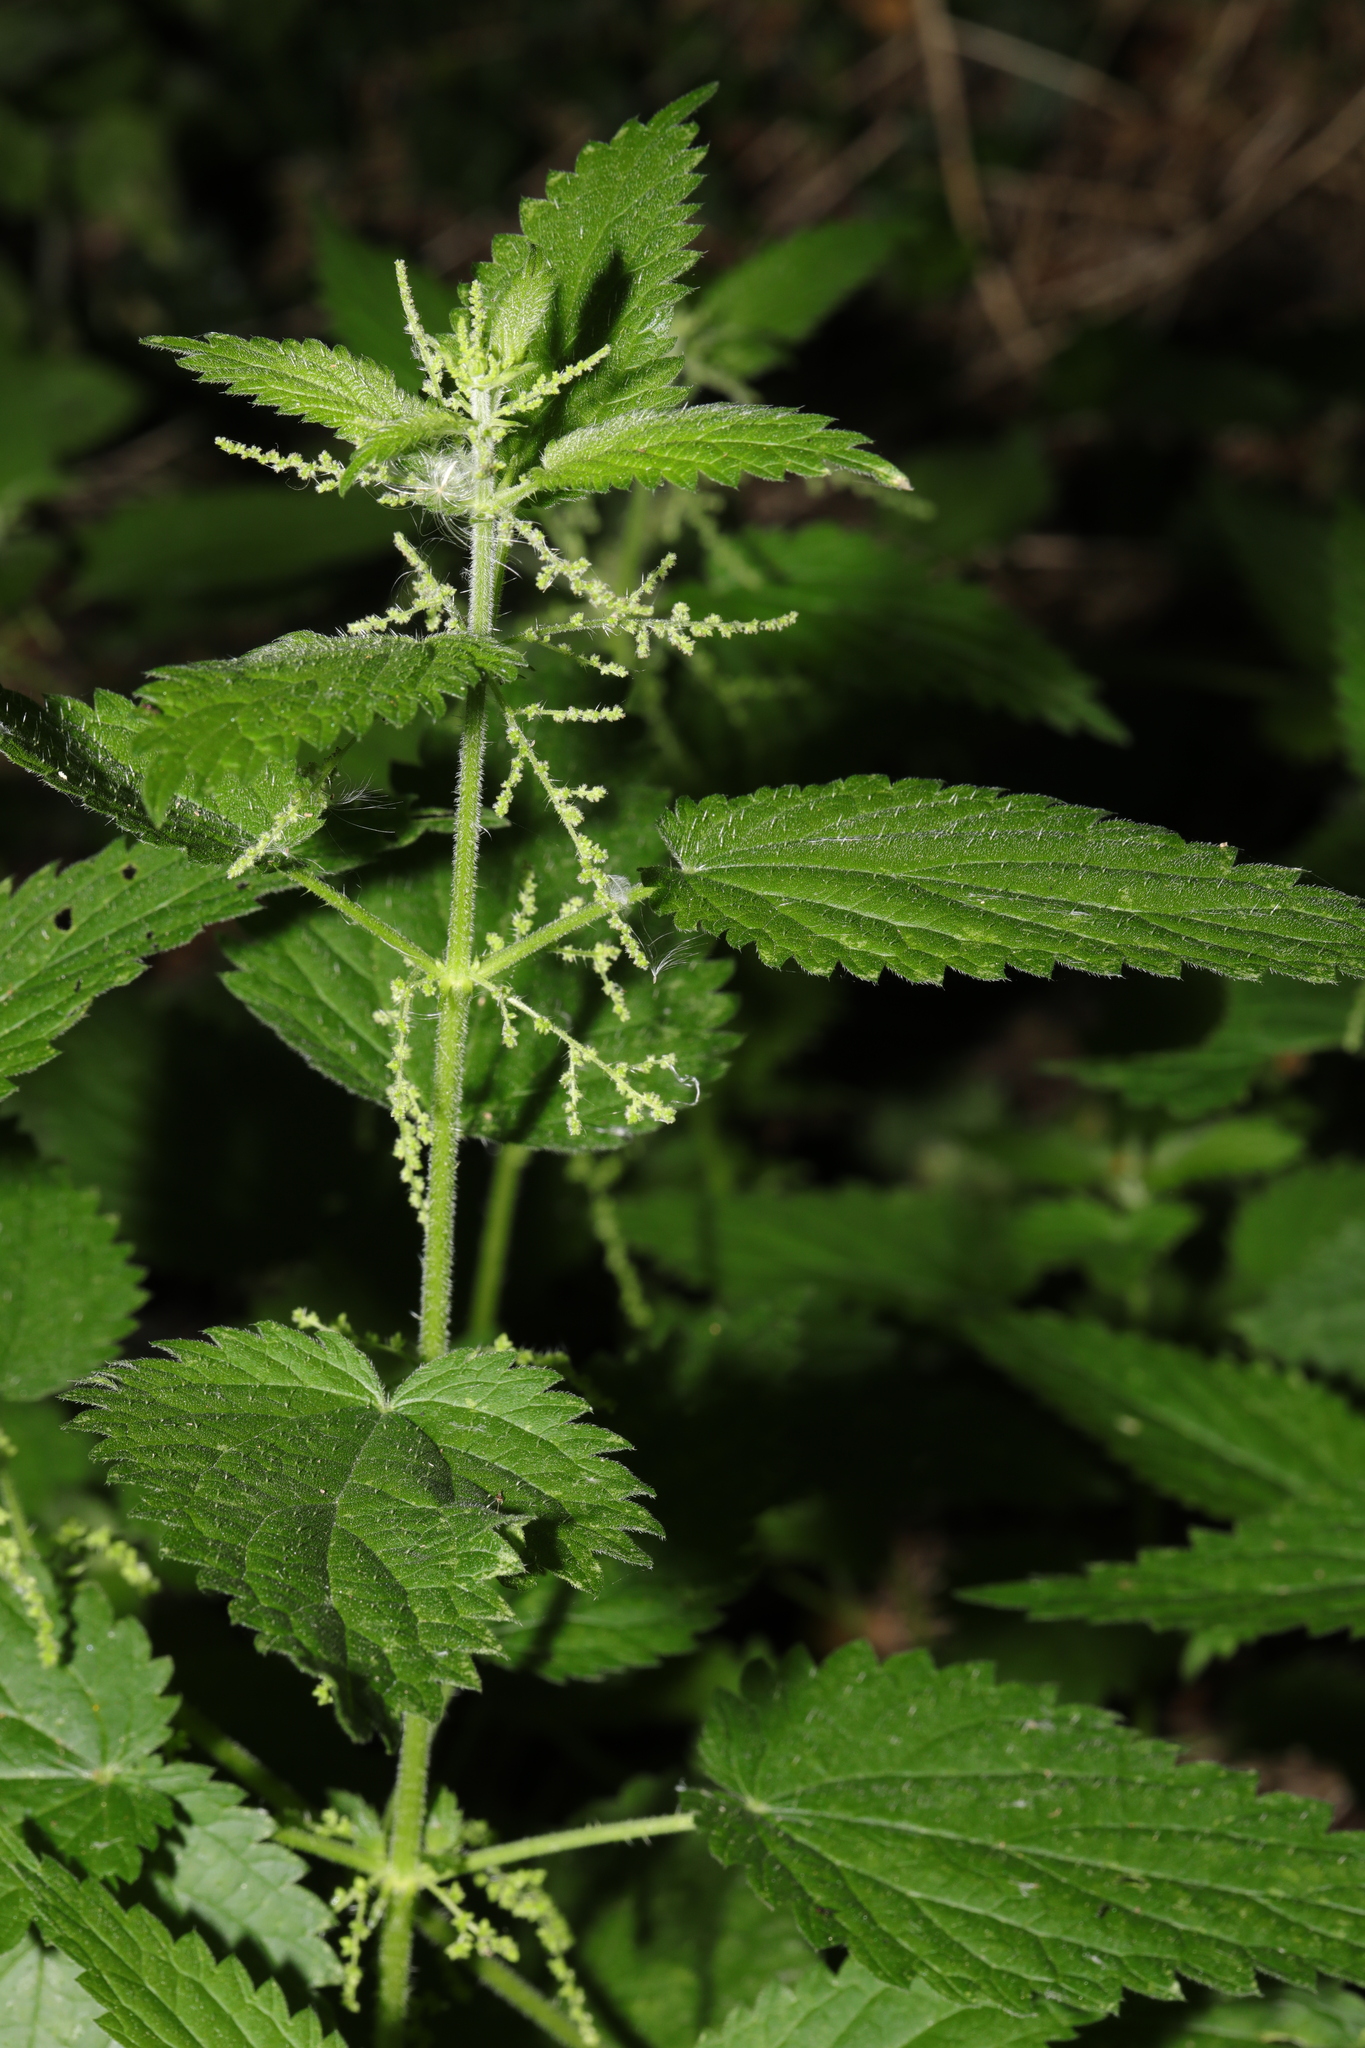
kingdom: Plantae
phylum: Tracheophyta
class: Magnoliopsida
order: Rosales
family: Urticaceae
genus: Urtica
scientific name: Urtica dioica
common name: Common nettle
